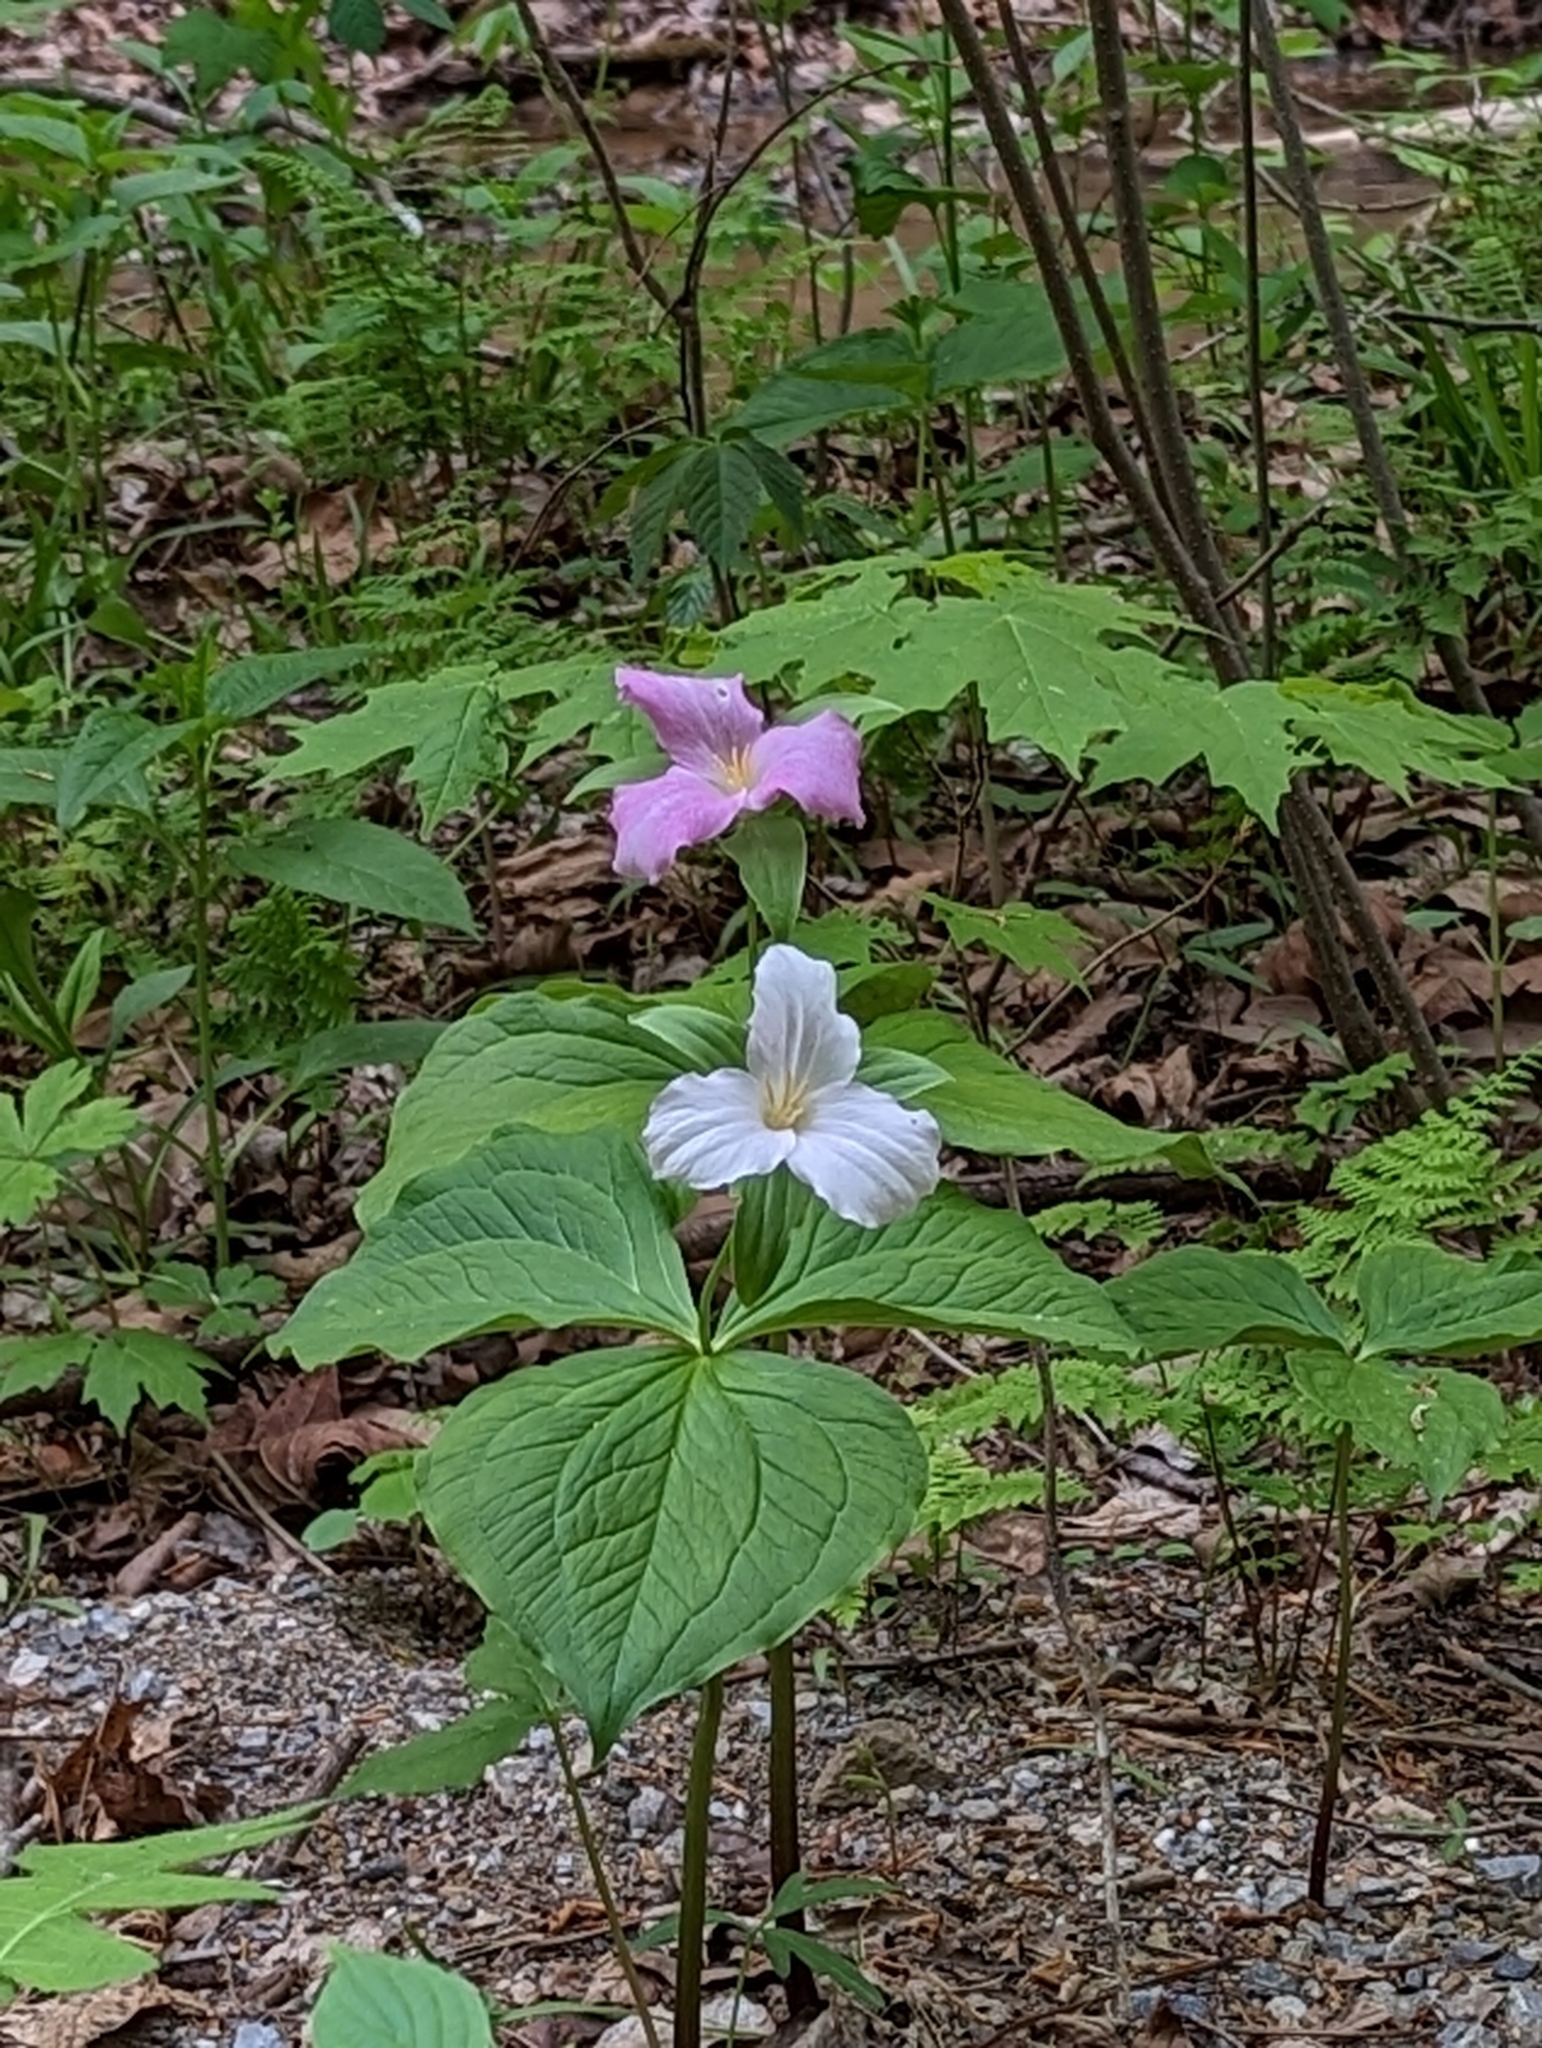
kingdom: Plantae
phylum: Tracheophyta
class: Liliopsida
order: Liliales
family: Melanthiaceae
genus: Trillium
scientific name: Trillium grandiflorum
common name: Great white trillium
